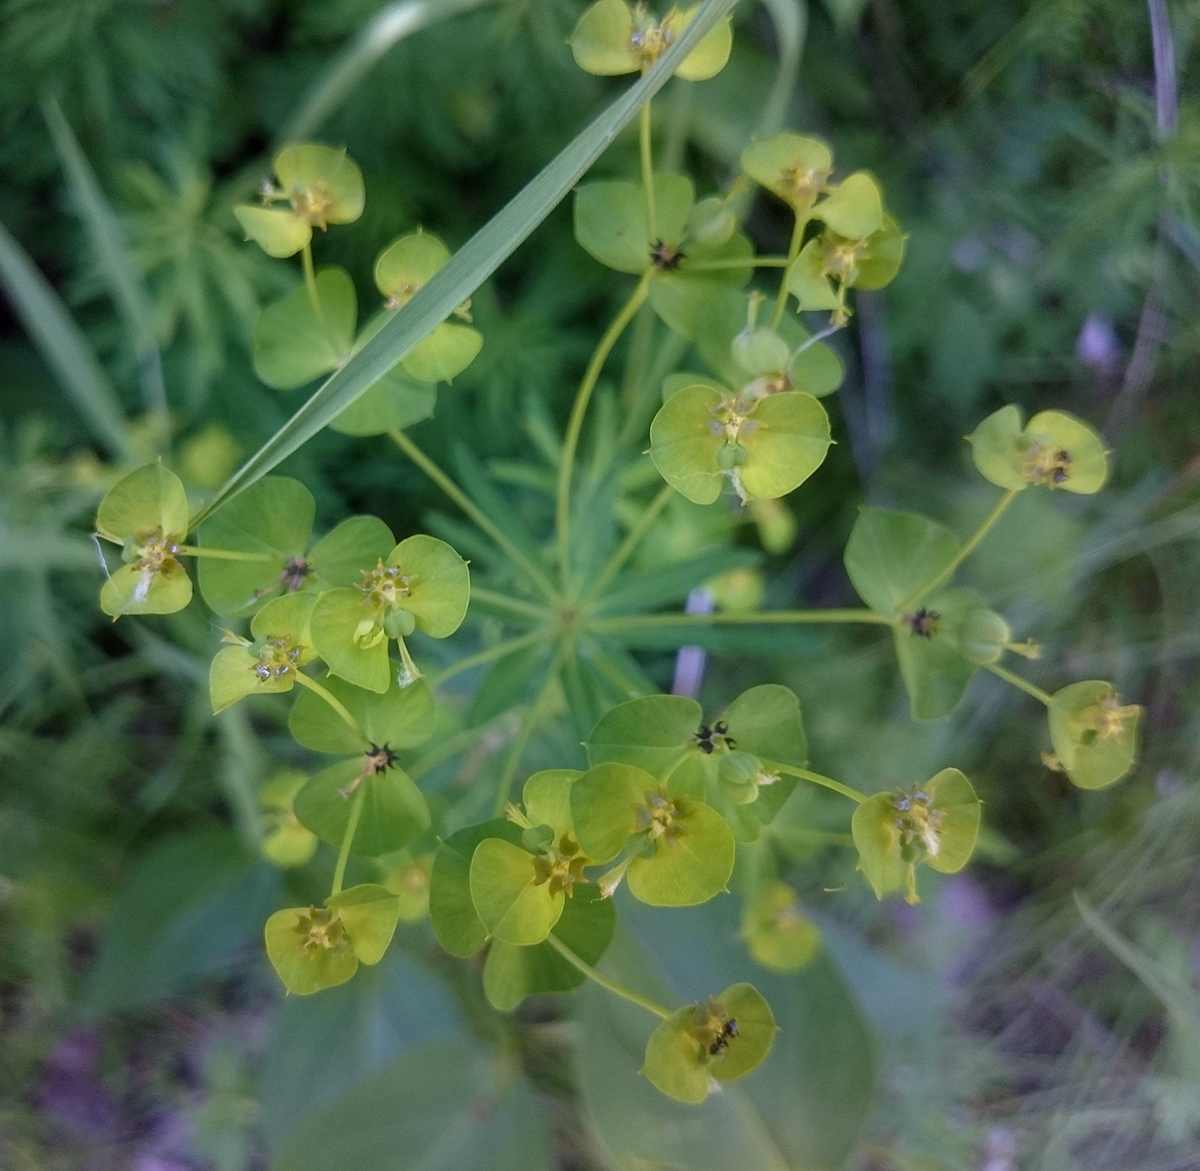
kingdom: Plantae
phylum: Tracheophyta
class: Magnoliopsida
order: Malpighiales
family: Euphorbiaceae
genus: Euphorbia
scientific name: Euphorbia cyparissias
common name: Cypress spurge
